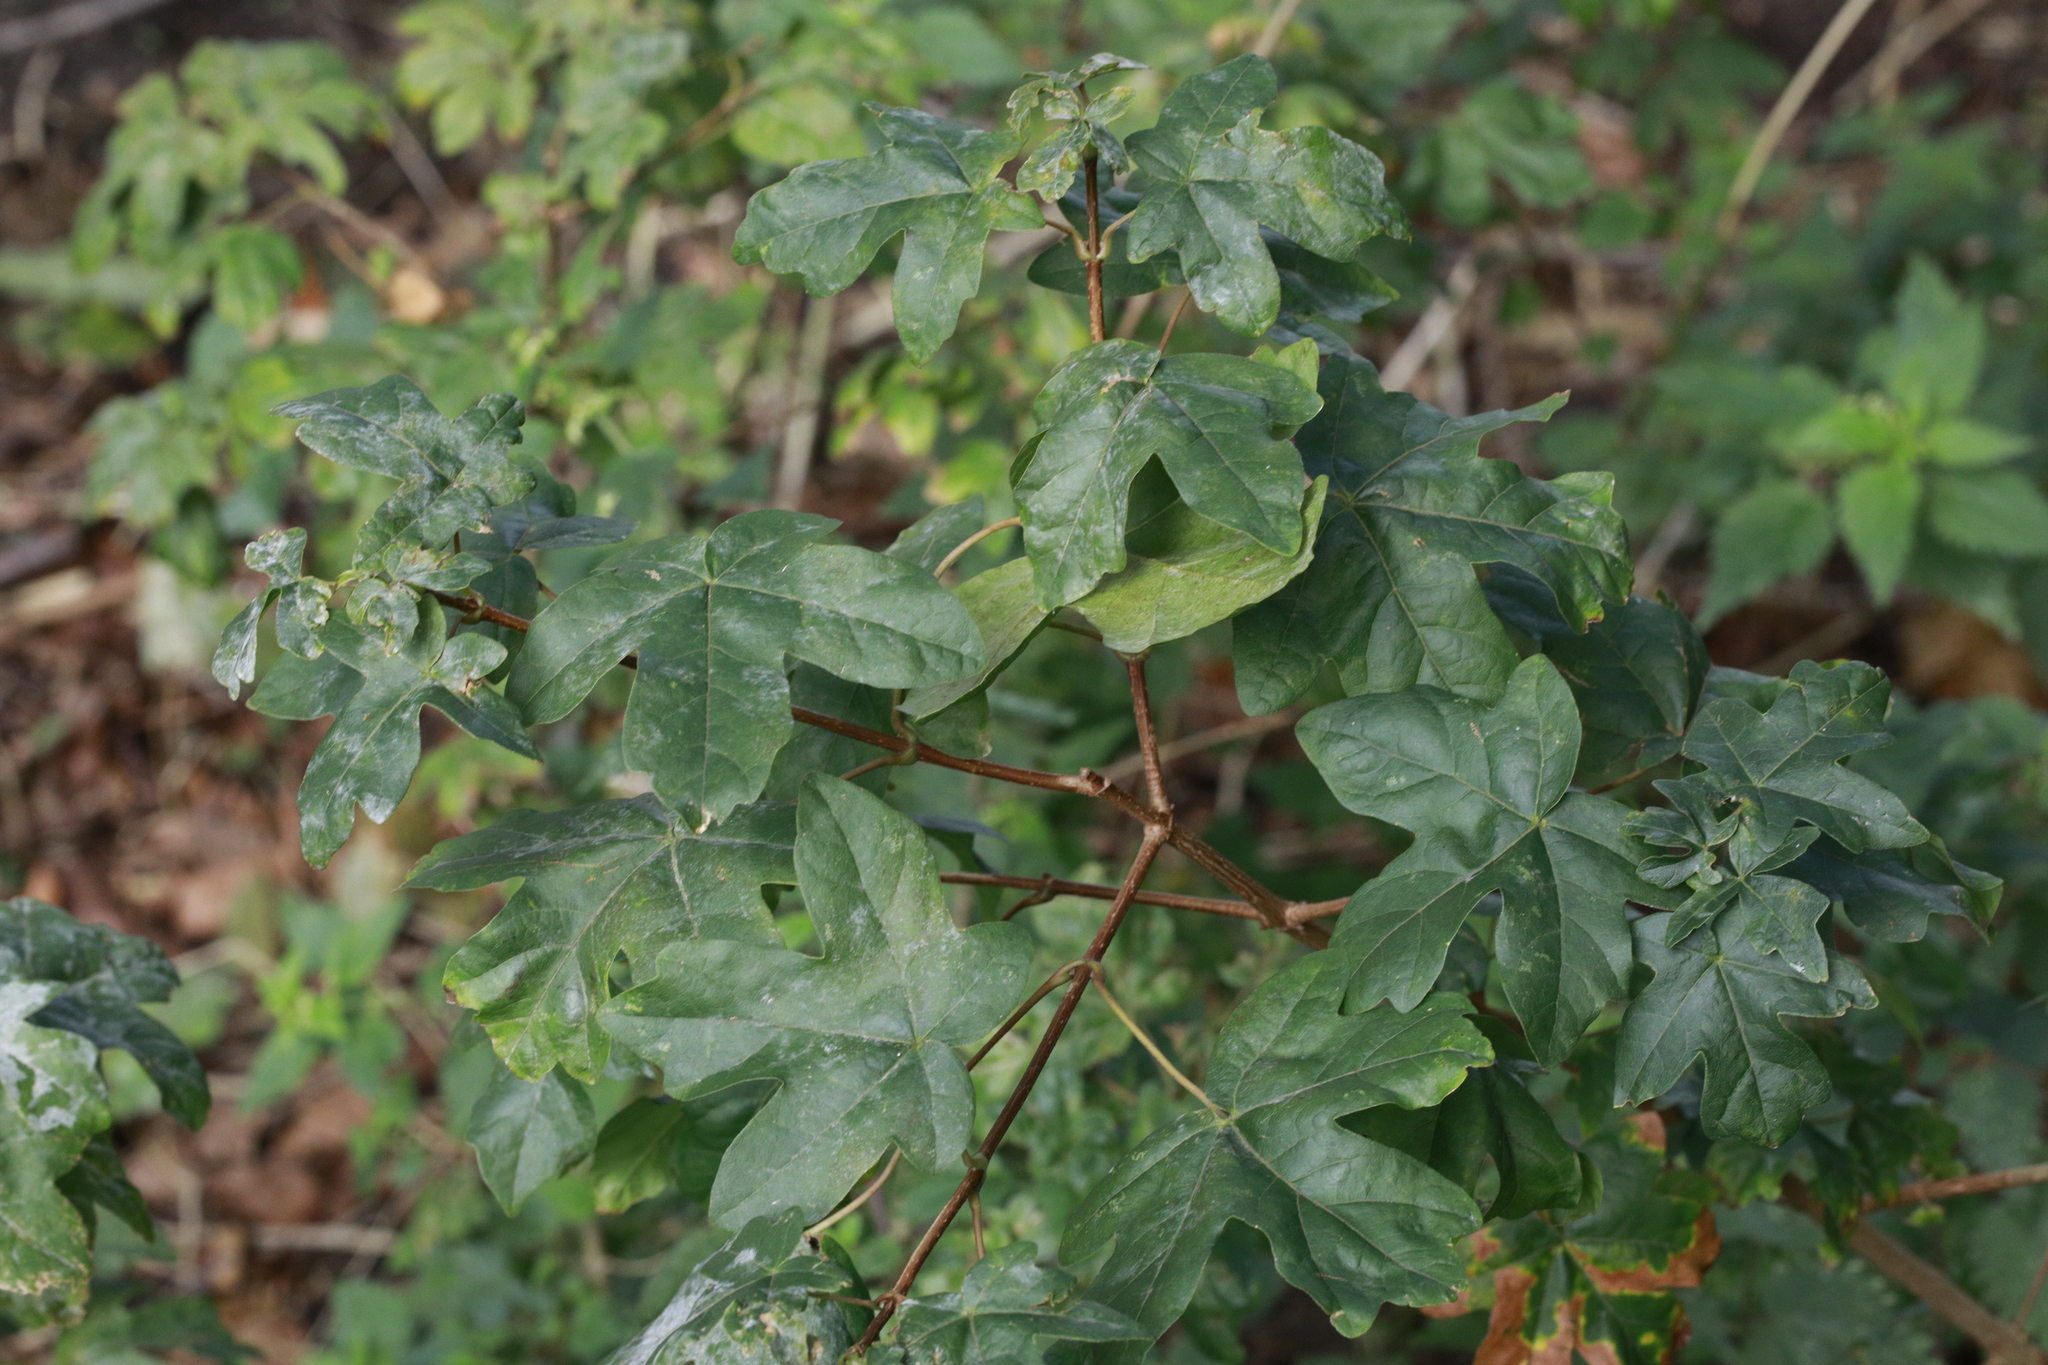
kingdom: Plantae
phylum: Tracheophyta
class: Magnoliopsida
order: Sapindales
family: Sapindaceae
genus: Acer
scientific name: Acer campestre
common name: Field maple
